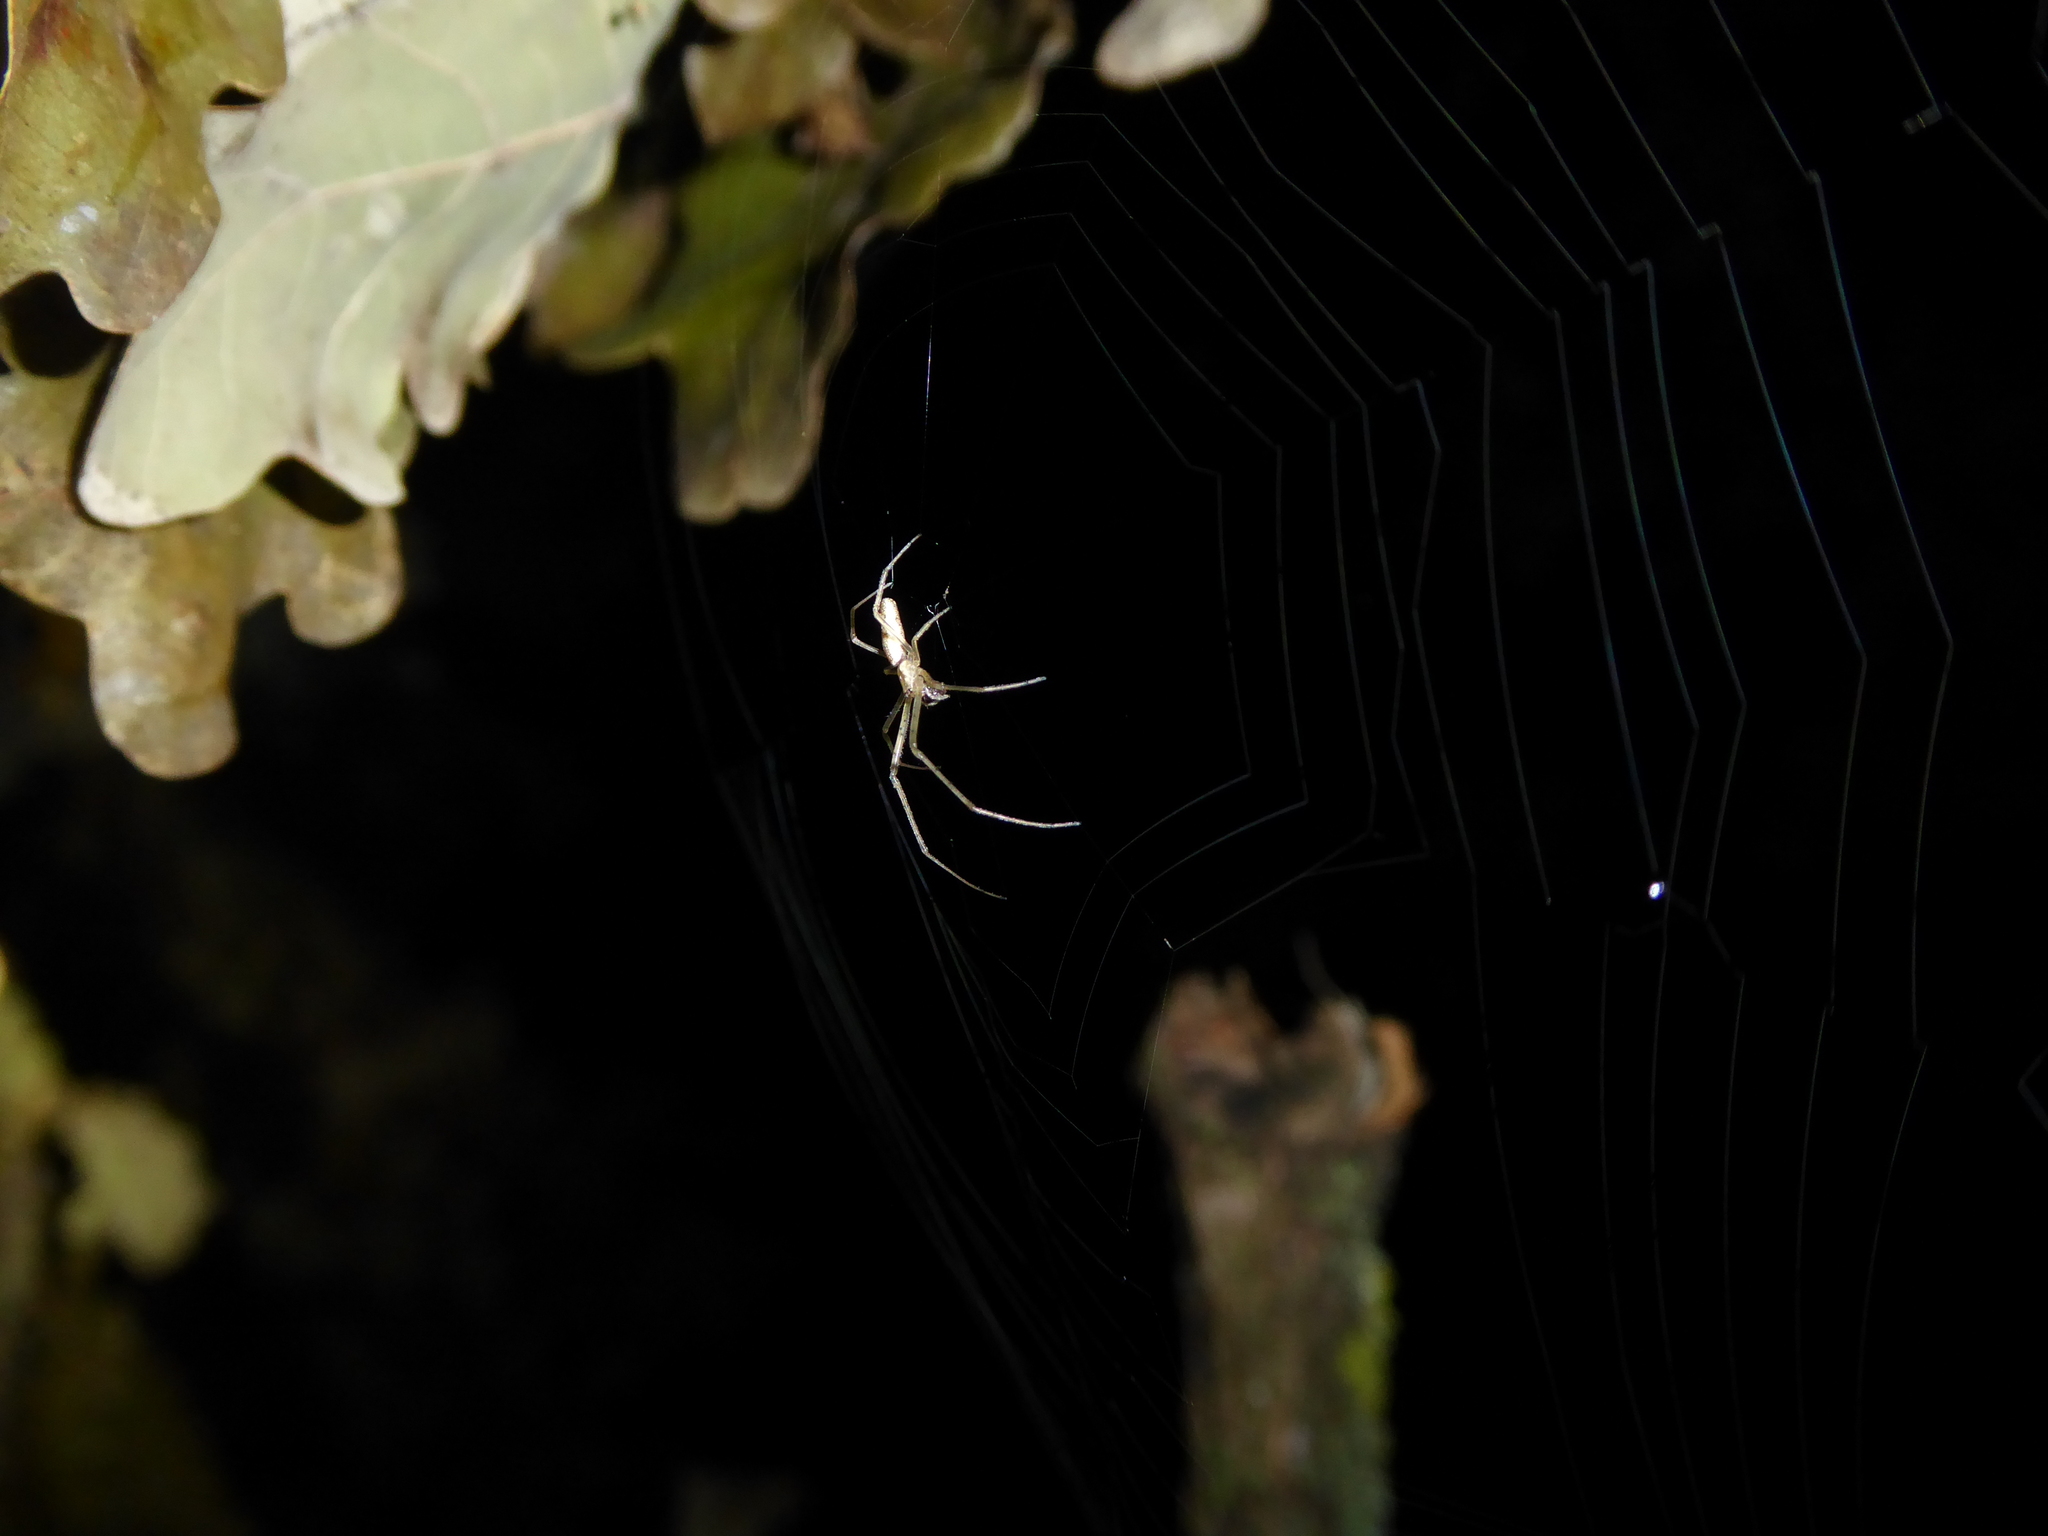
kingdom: Animalia
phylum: Arthropoda
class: Arachnida
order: Araneae
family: Tetragnathidae
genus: Tetragnatha
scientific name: Tetragnatha
